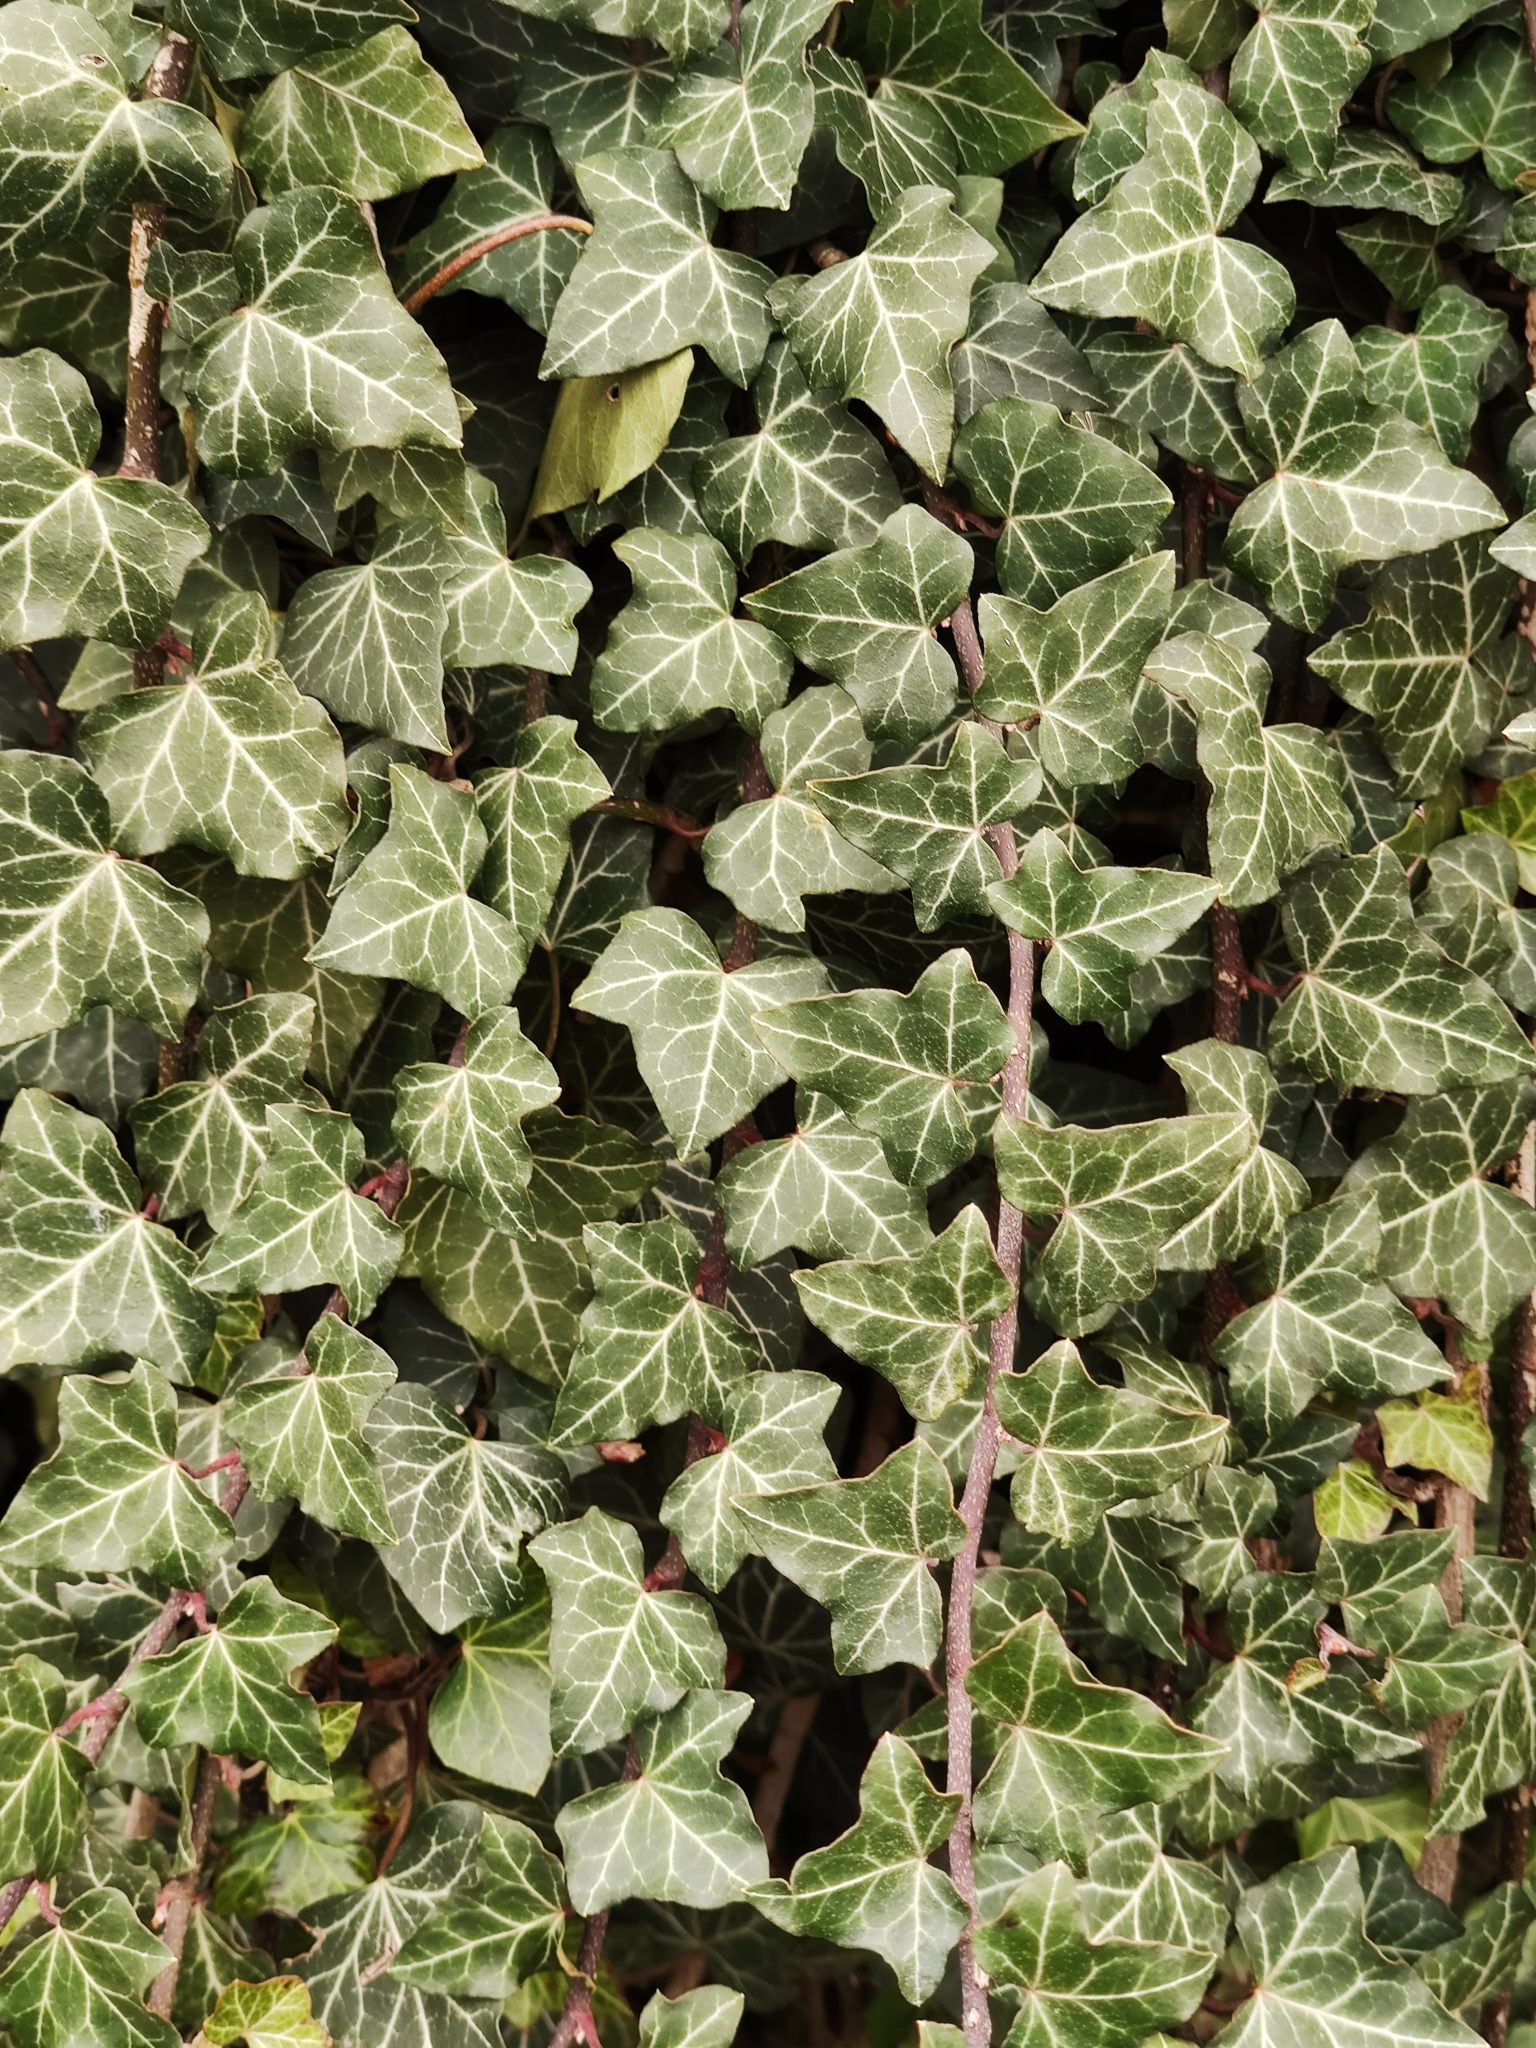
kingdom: Plantae
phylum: Tracheophyta
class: Magnoliopsida
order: Apiales
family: Araliaceae
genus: Hedera
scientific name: Hedera helix
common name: Ivy
